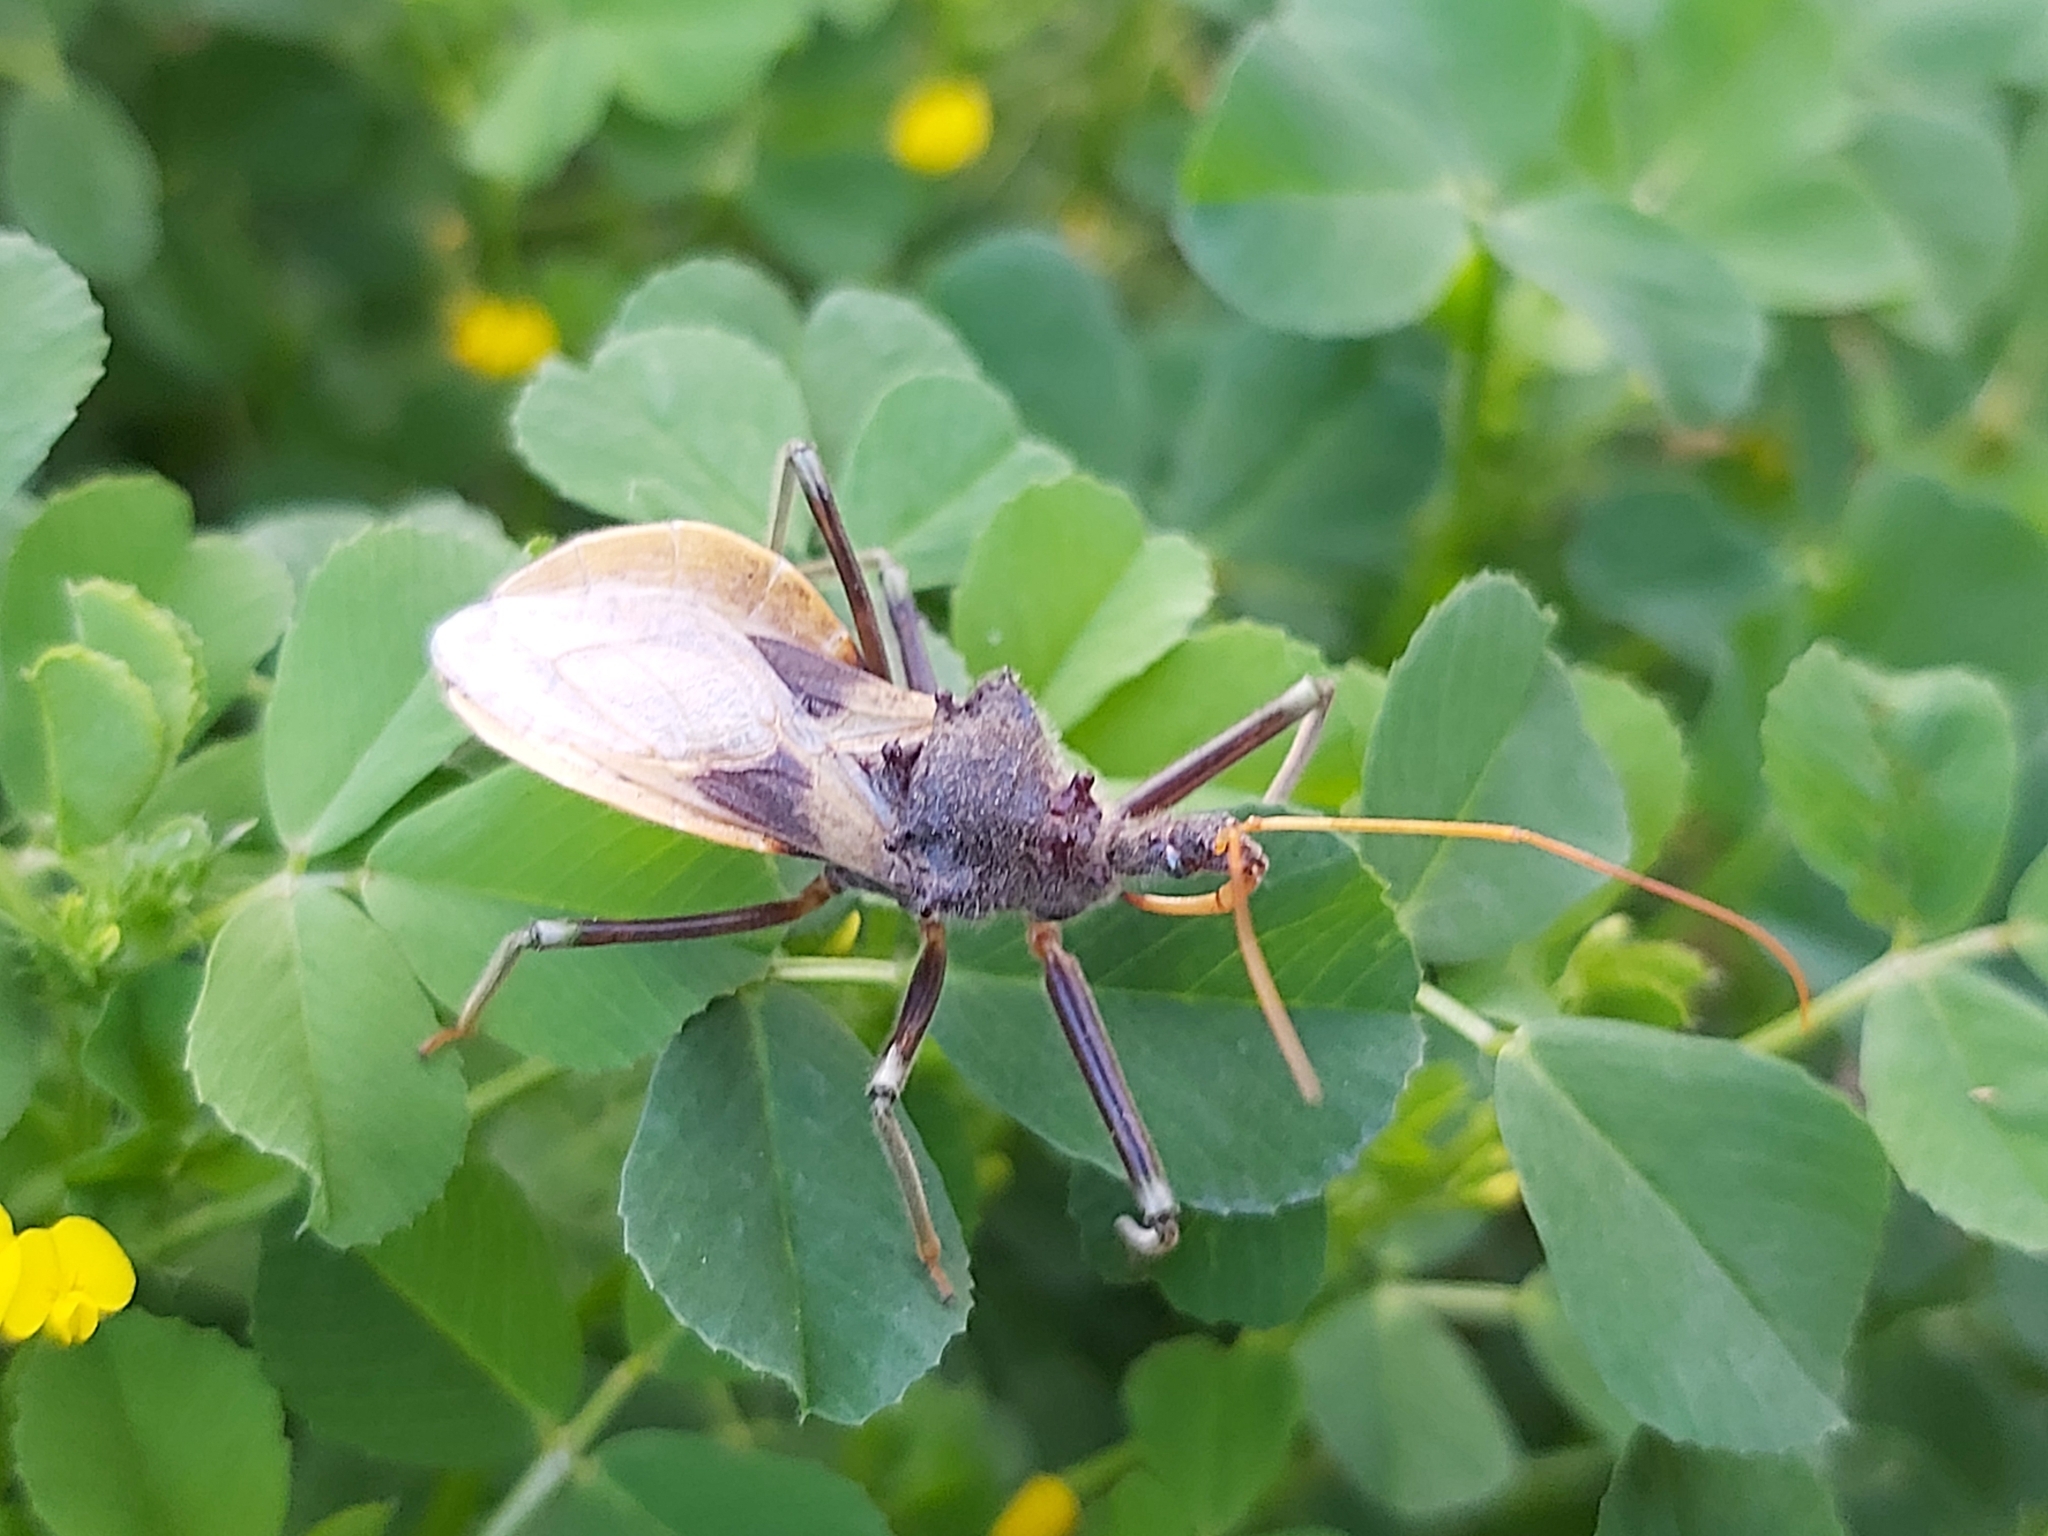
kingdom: Animalia
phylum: Arthropoda
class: Insecta
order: Hemiptera
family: Reduviidae
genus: Pristhesancus
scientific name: Pristhesancus plagipennis
